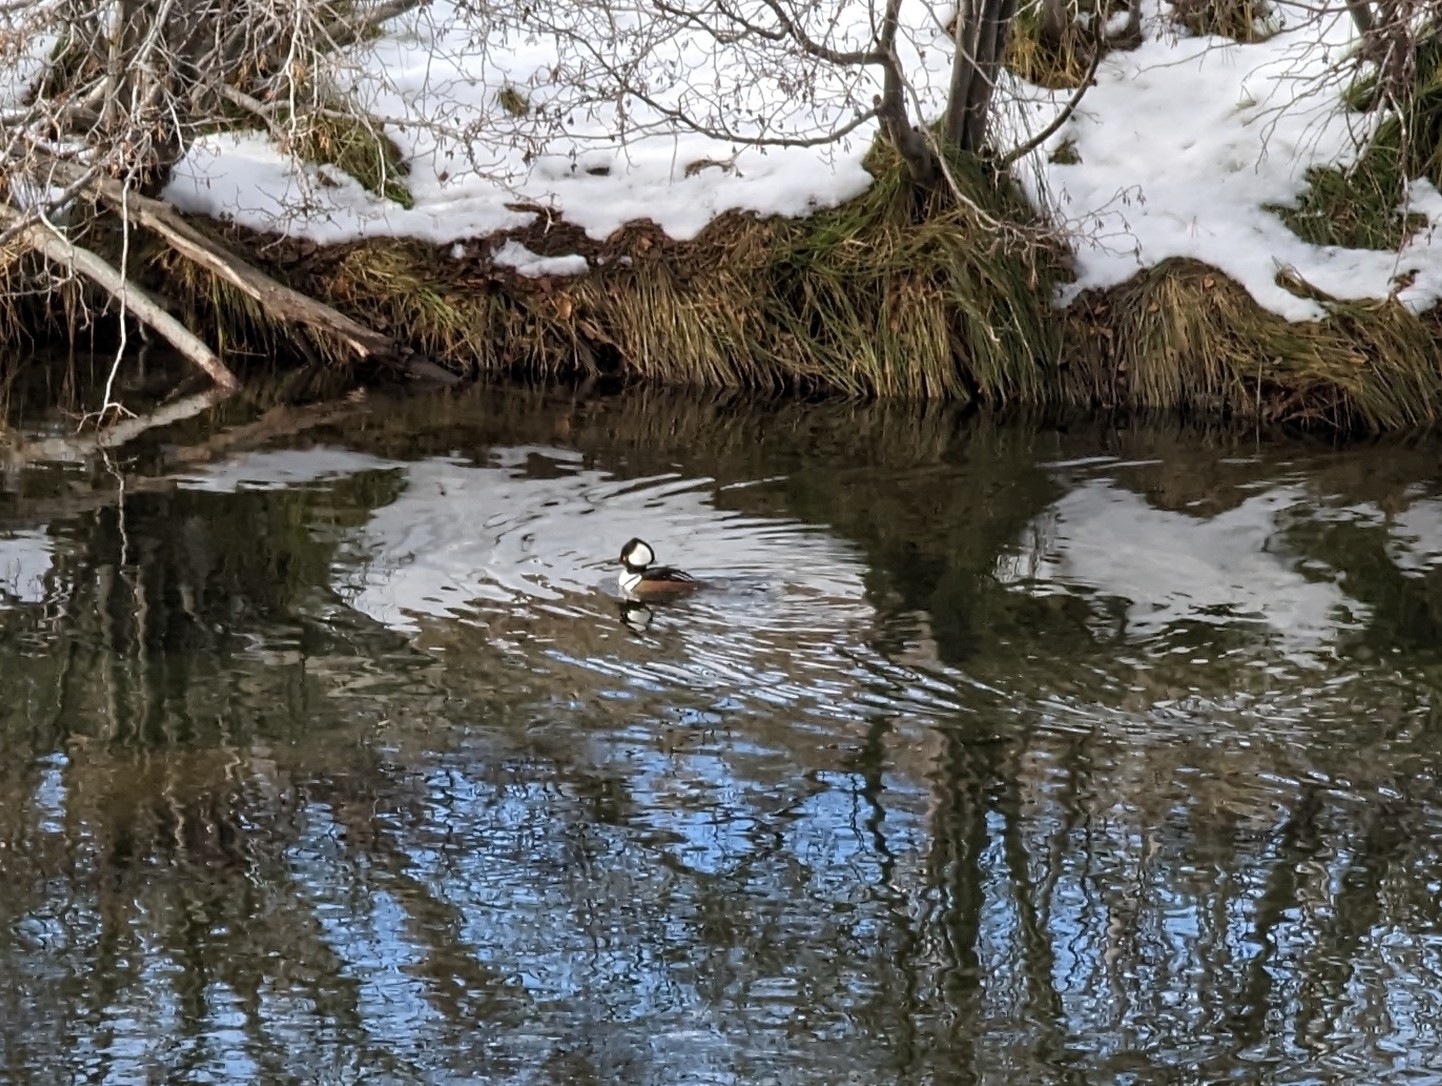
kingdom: Animalia
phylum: Chordata
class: Aves
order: Anseriformes
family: Anatidae
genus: Lophodytes
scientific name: Lophodytes cucullatus
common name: Hooded merganser
